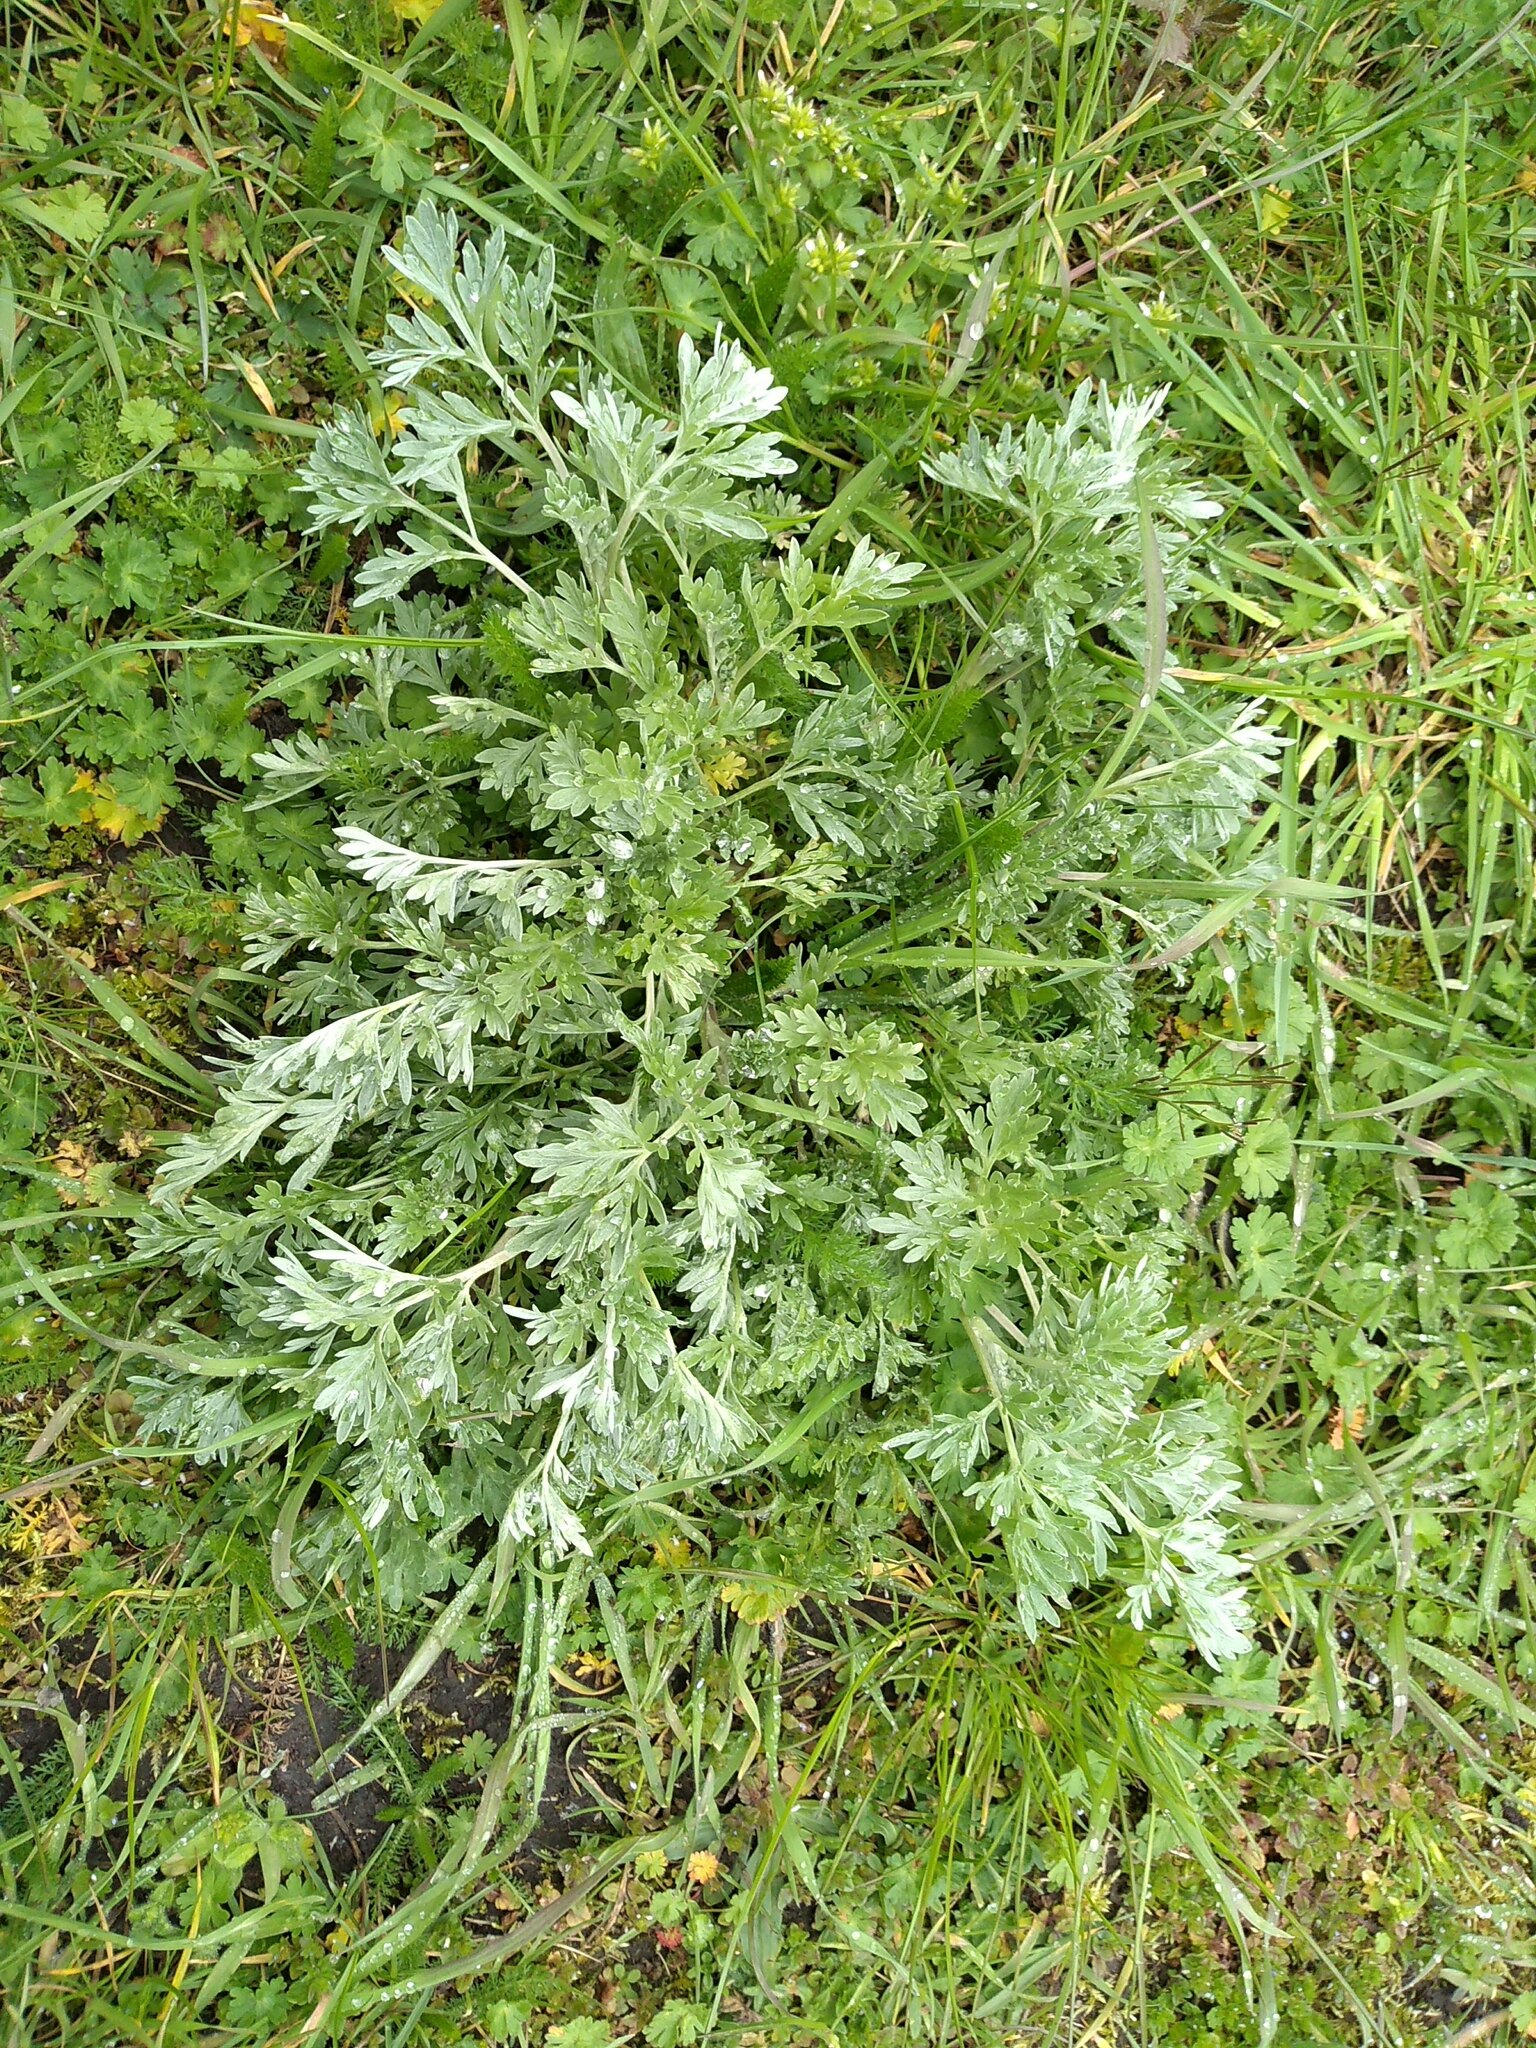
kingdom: Plantae
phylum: Tracheophyta
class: Magnoliopsida
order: Asterales
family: Asteraceae
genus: Artemisia
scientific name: Artemisia absinthium
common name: Wormwood
